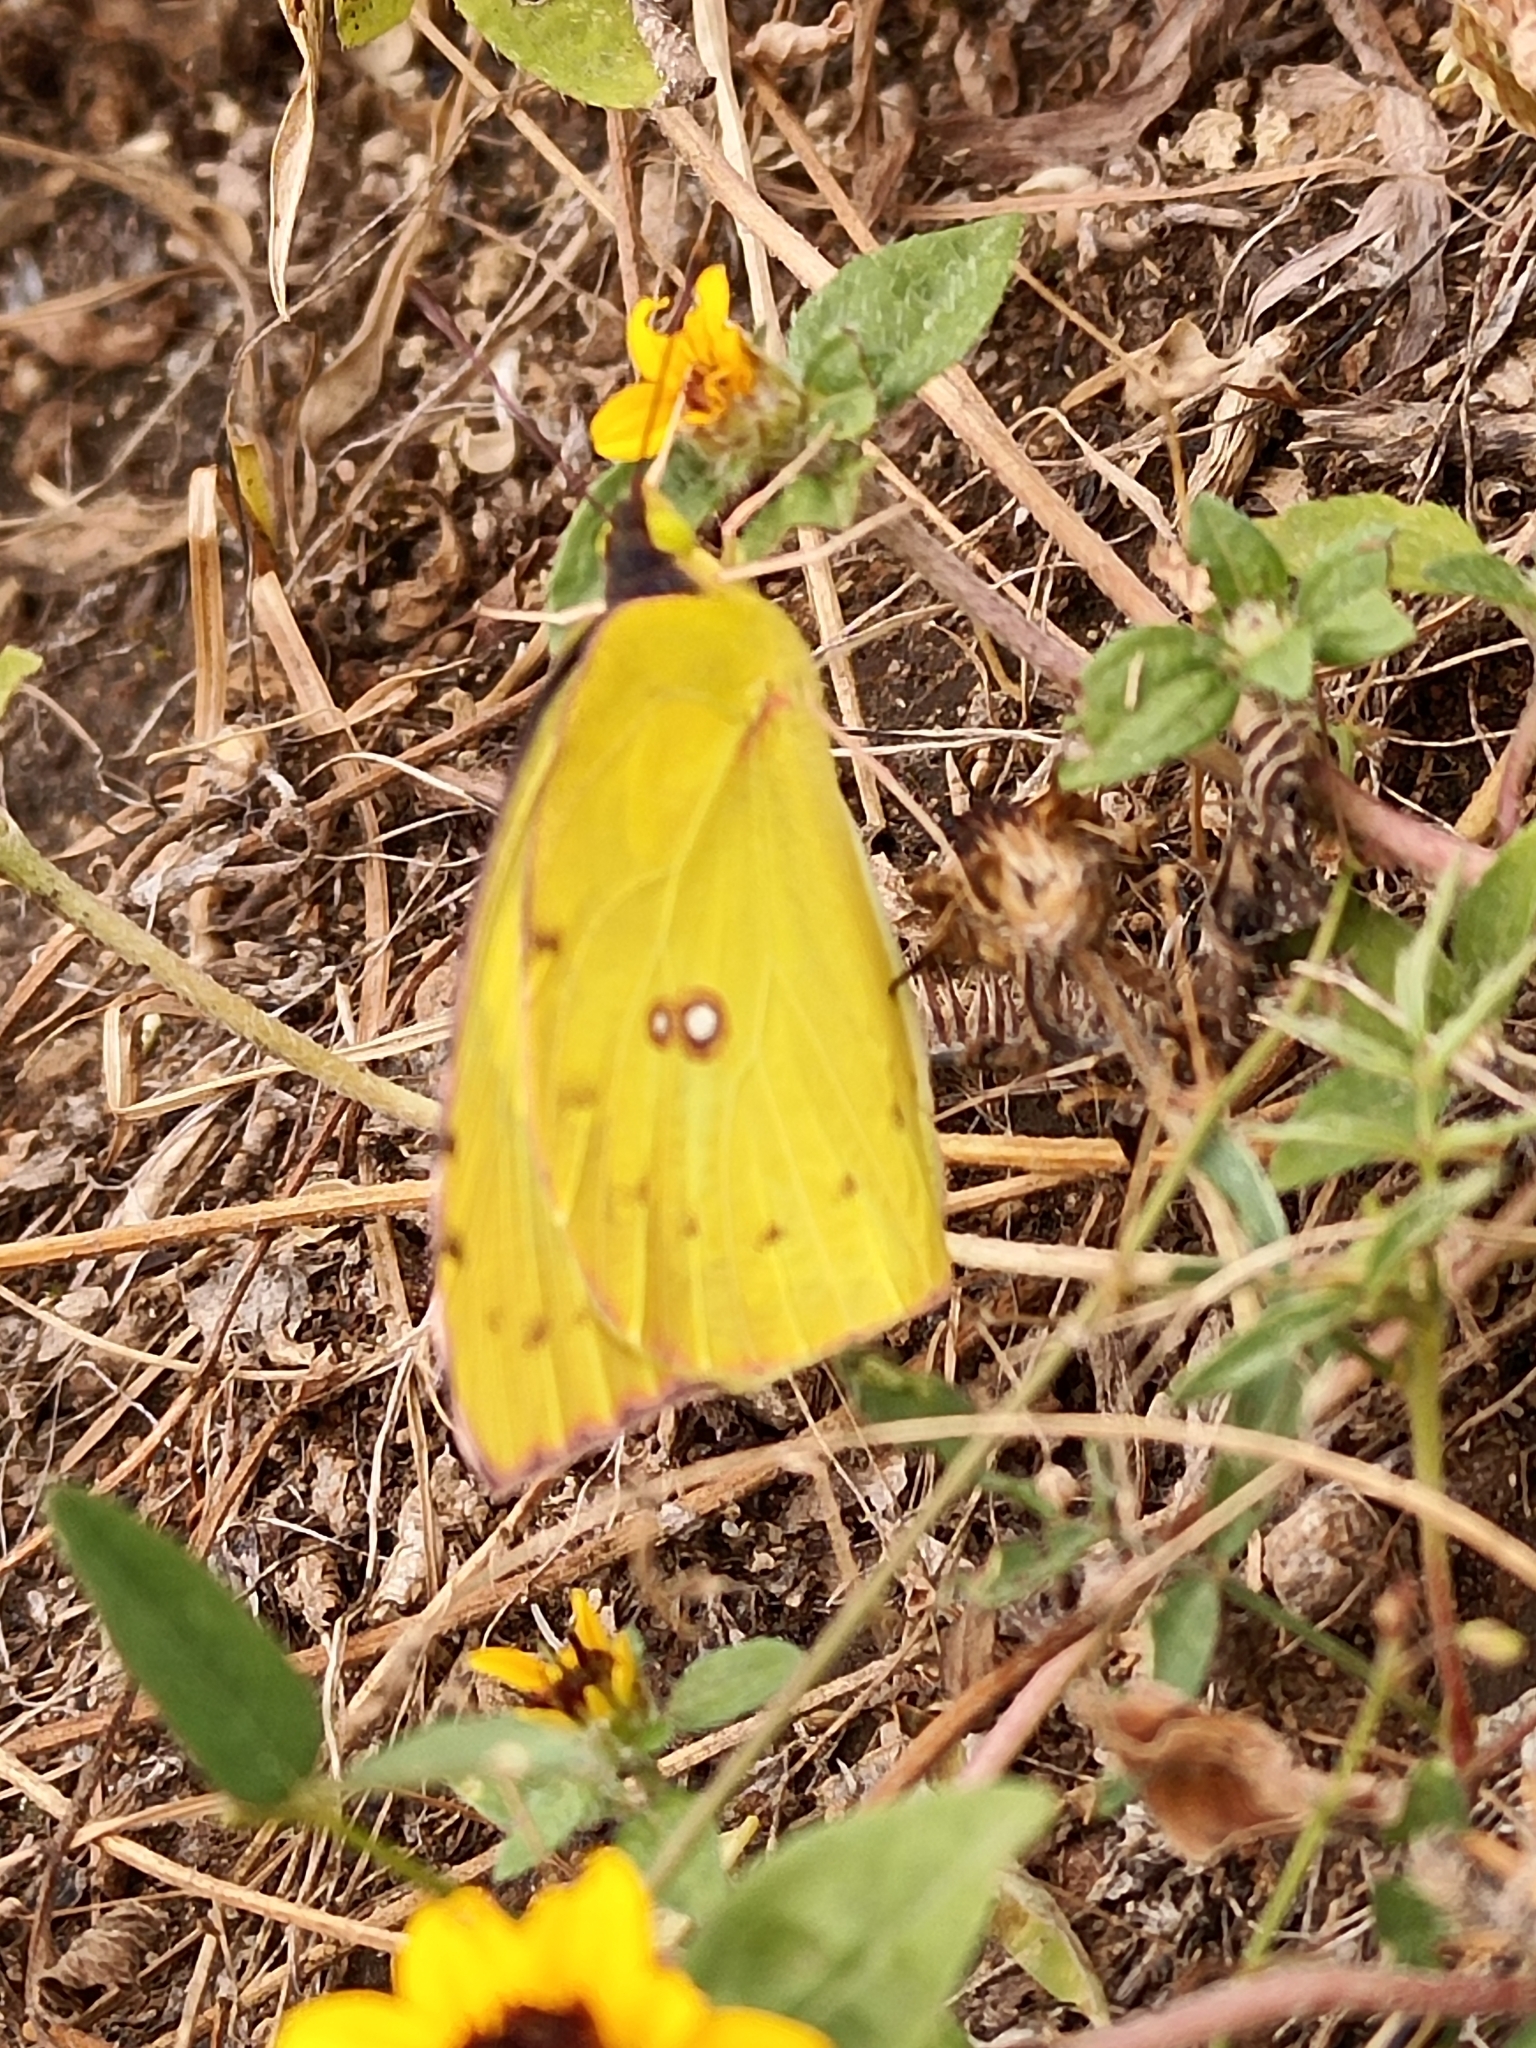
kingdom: Animalia
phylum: Arthropoda
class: Insecta
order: Lepidoptera
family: Pieridae
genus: Zerene
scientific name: Zerene cesonia
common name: Southern dogface
